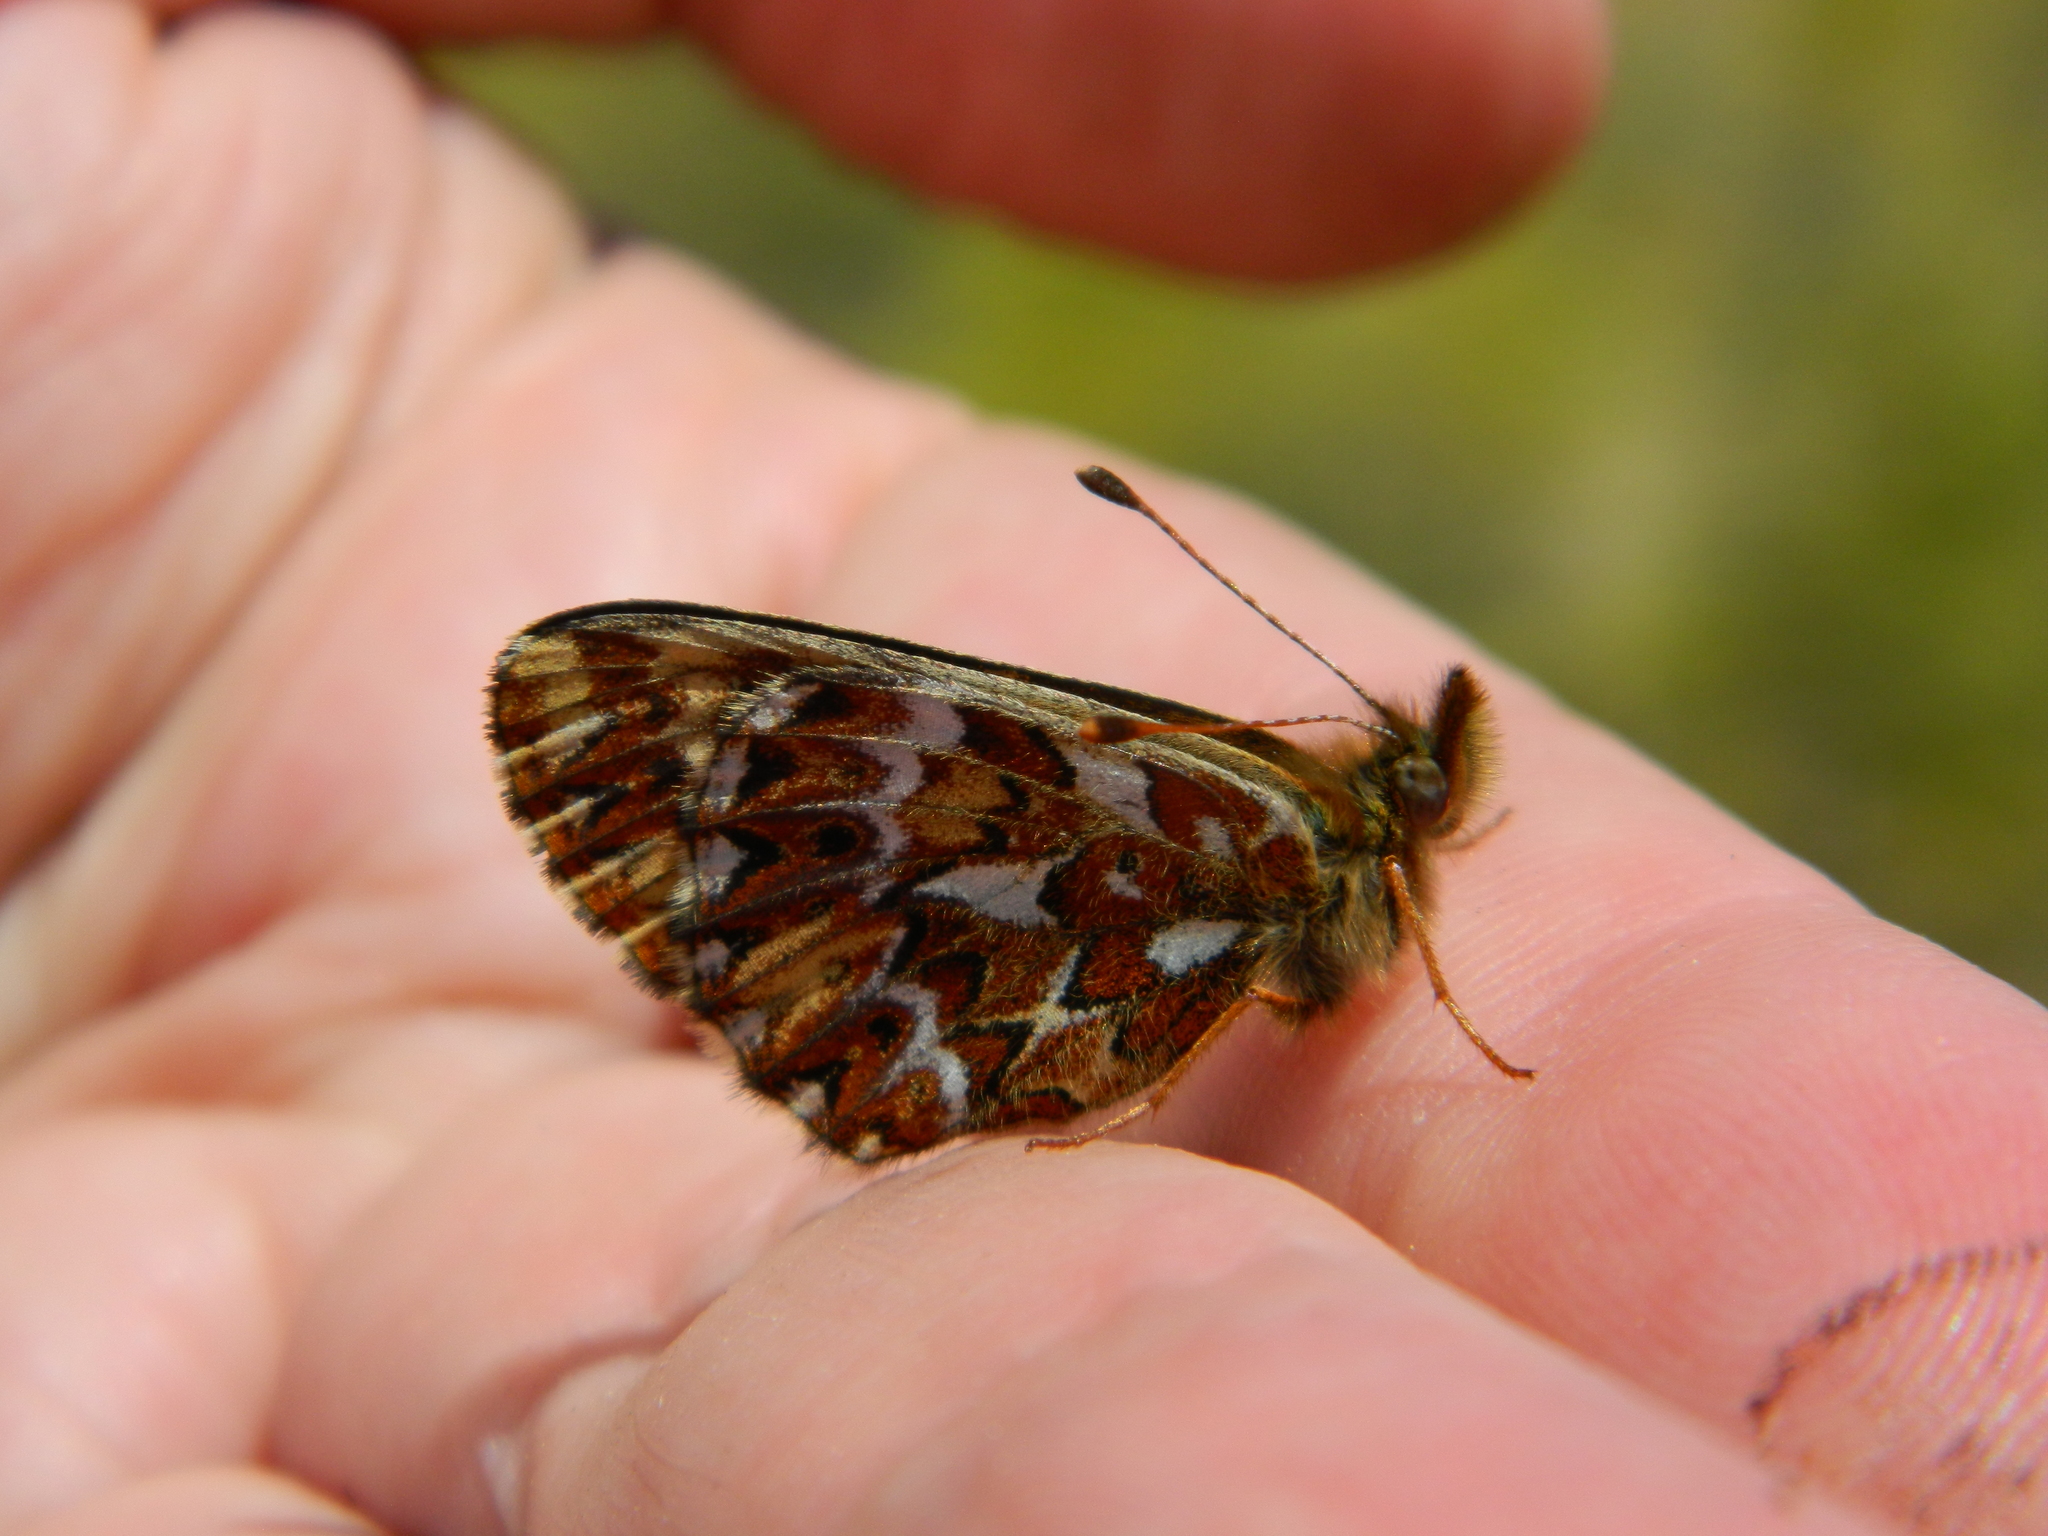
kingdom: Animalia
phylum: Arthropoda
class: Insecta
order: Lepidoptera
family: Nymphalidae
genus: Boloria
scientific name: Boloria freija
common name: Freija fritillary
